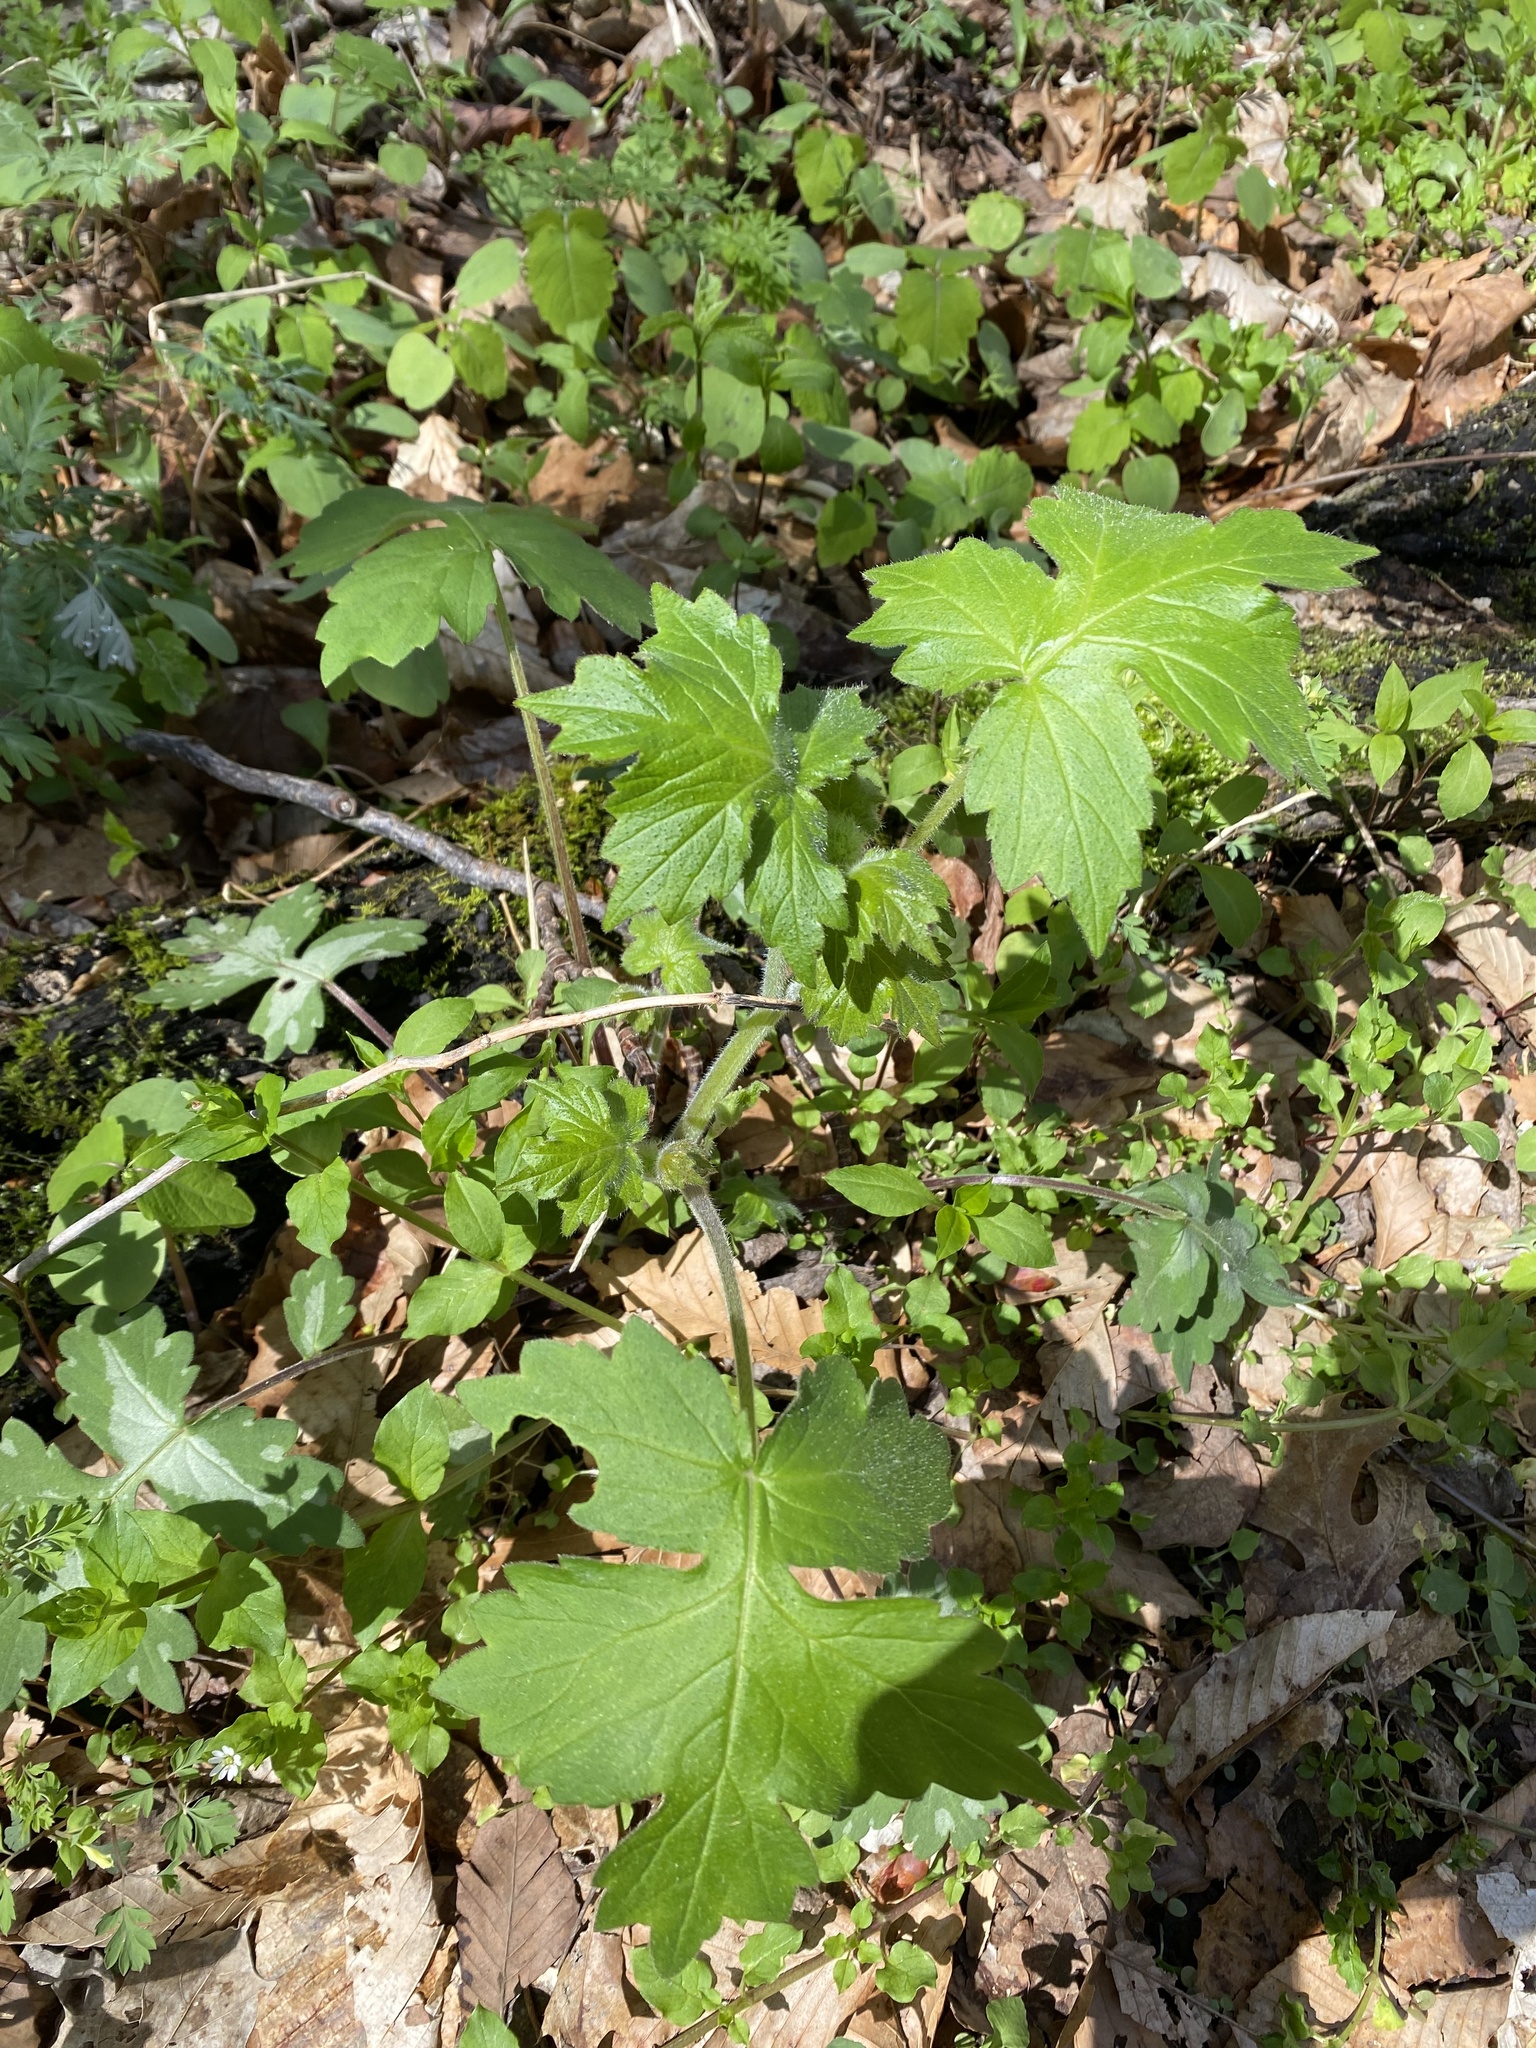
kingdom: Plantae
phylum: Tracheophyta
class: Magnoliopsida
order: Boraginales
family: Hydrophyllaceae
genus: Hydrophyllum
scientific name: Hydrophyllum appendiculatum
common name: Appendaged waterleaf
